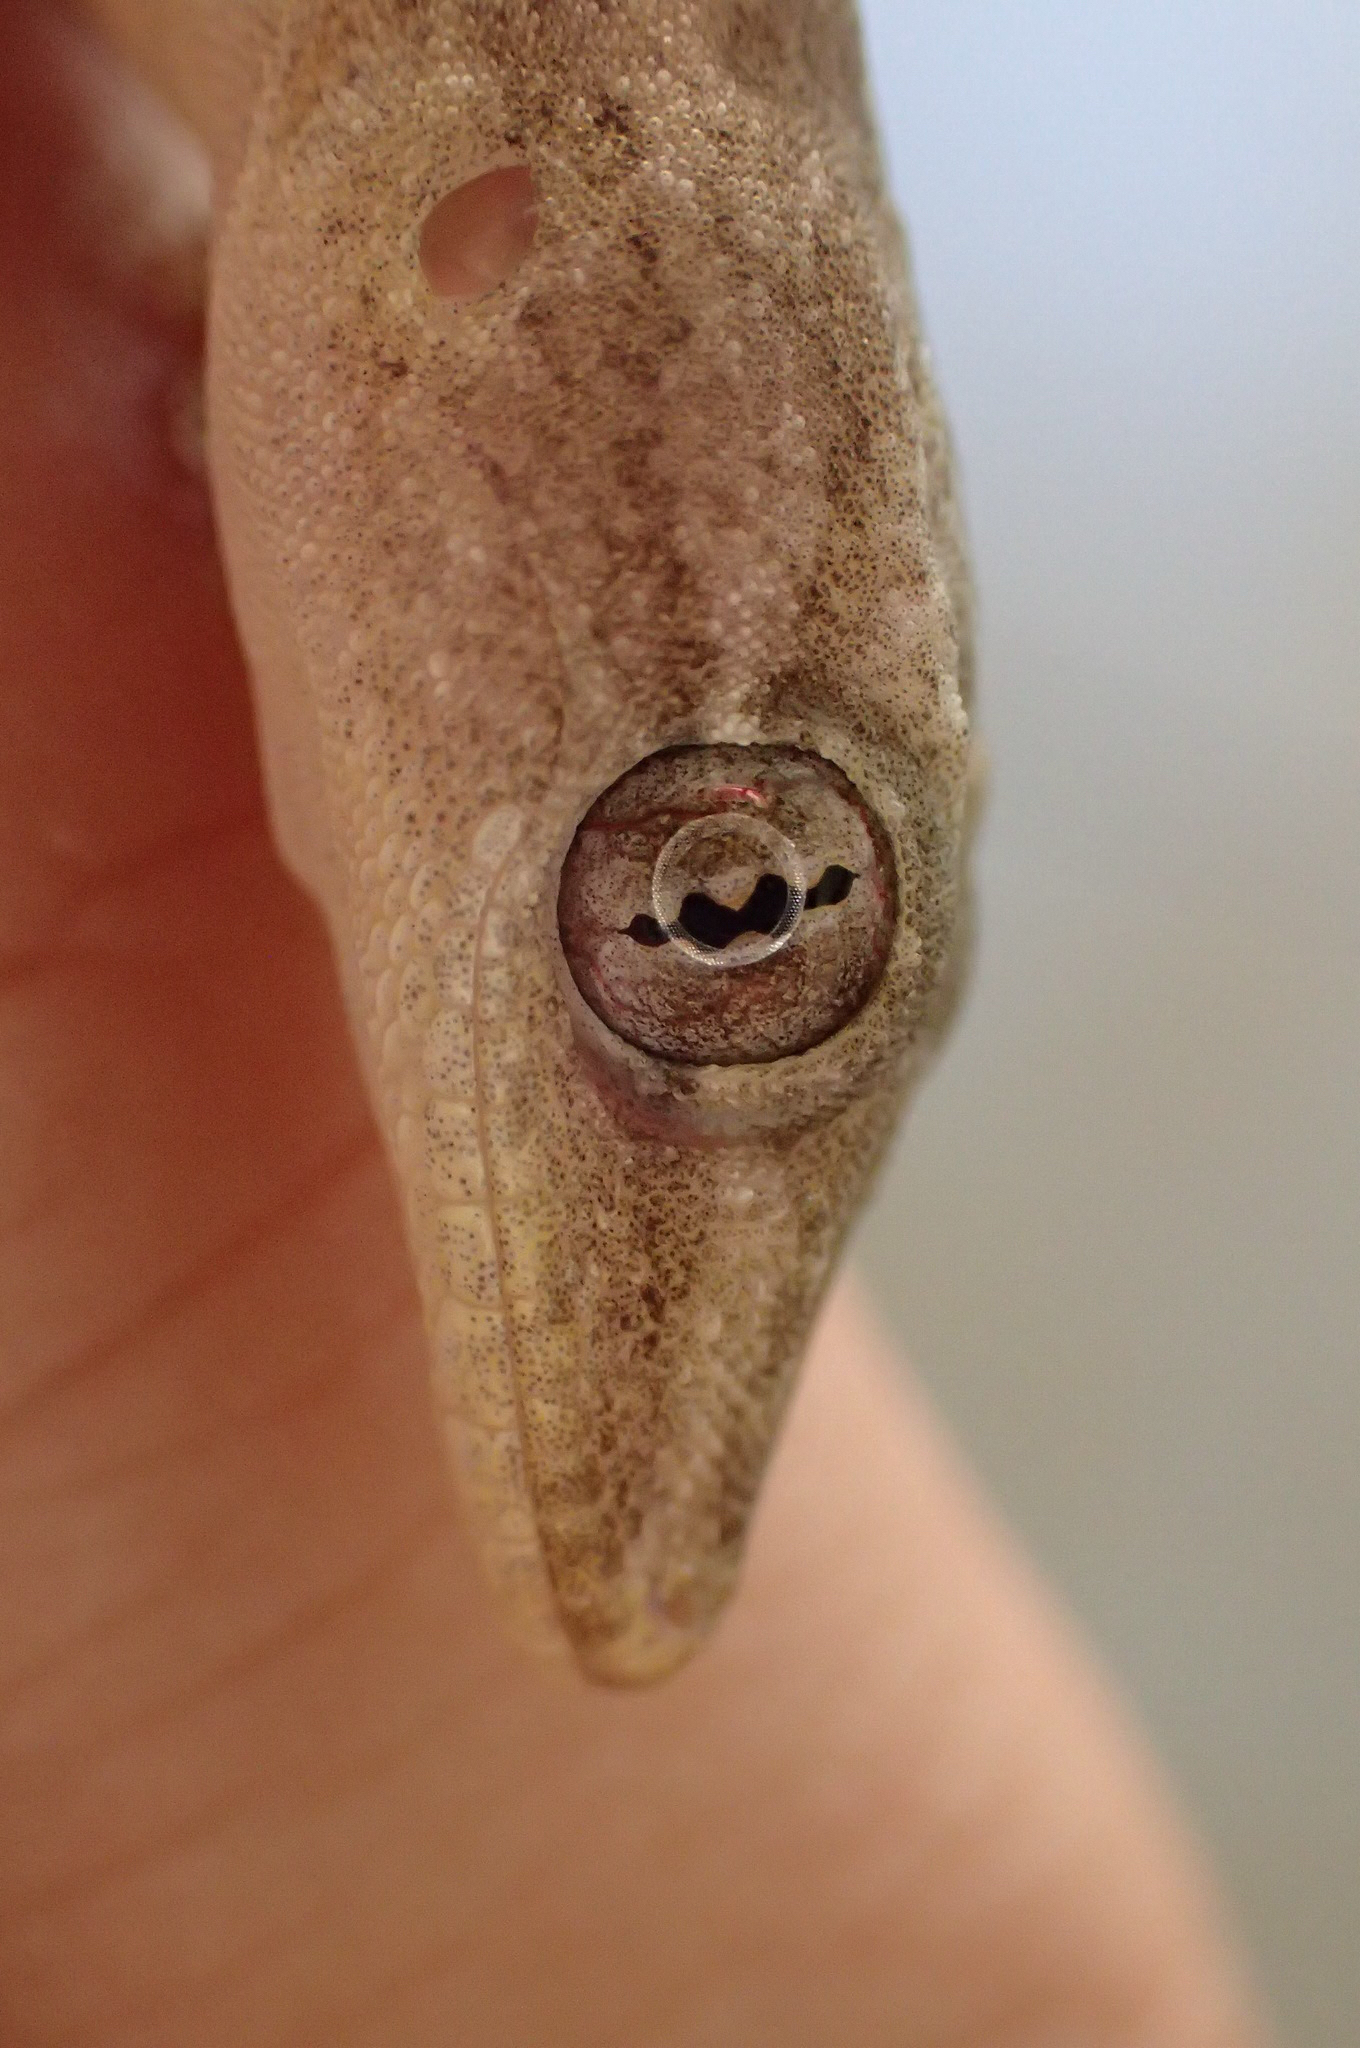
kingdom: Animalia
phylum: Chordata
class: Squamata
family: Gekkonidae
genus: Hemidactylus
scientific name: Hemidactylus frenatus
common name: Common house gecko
